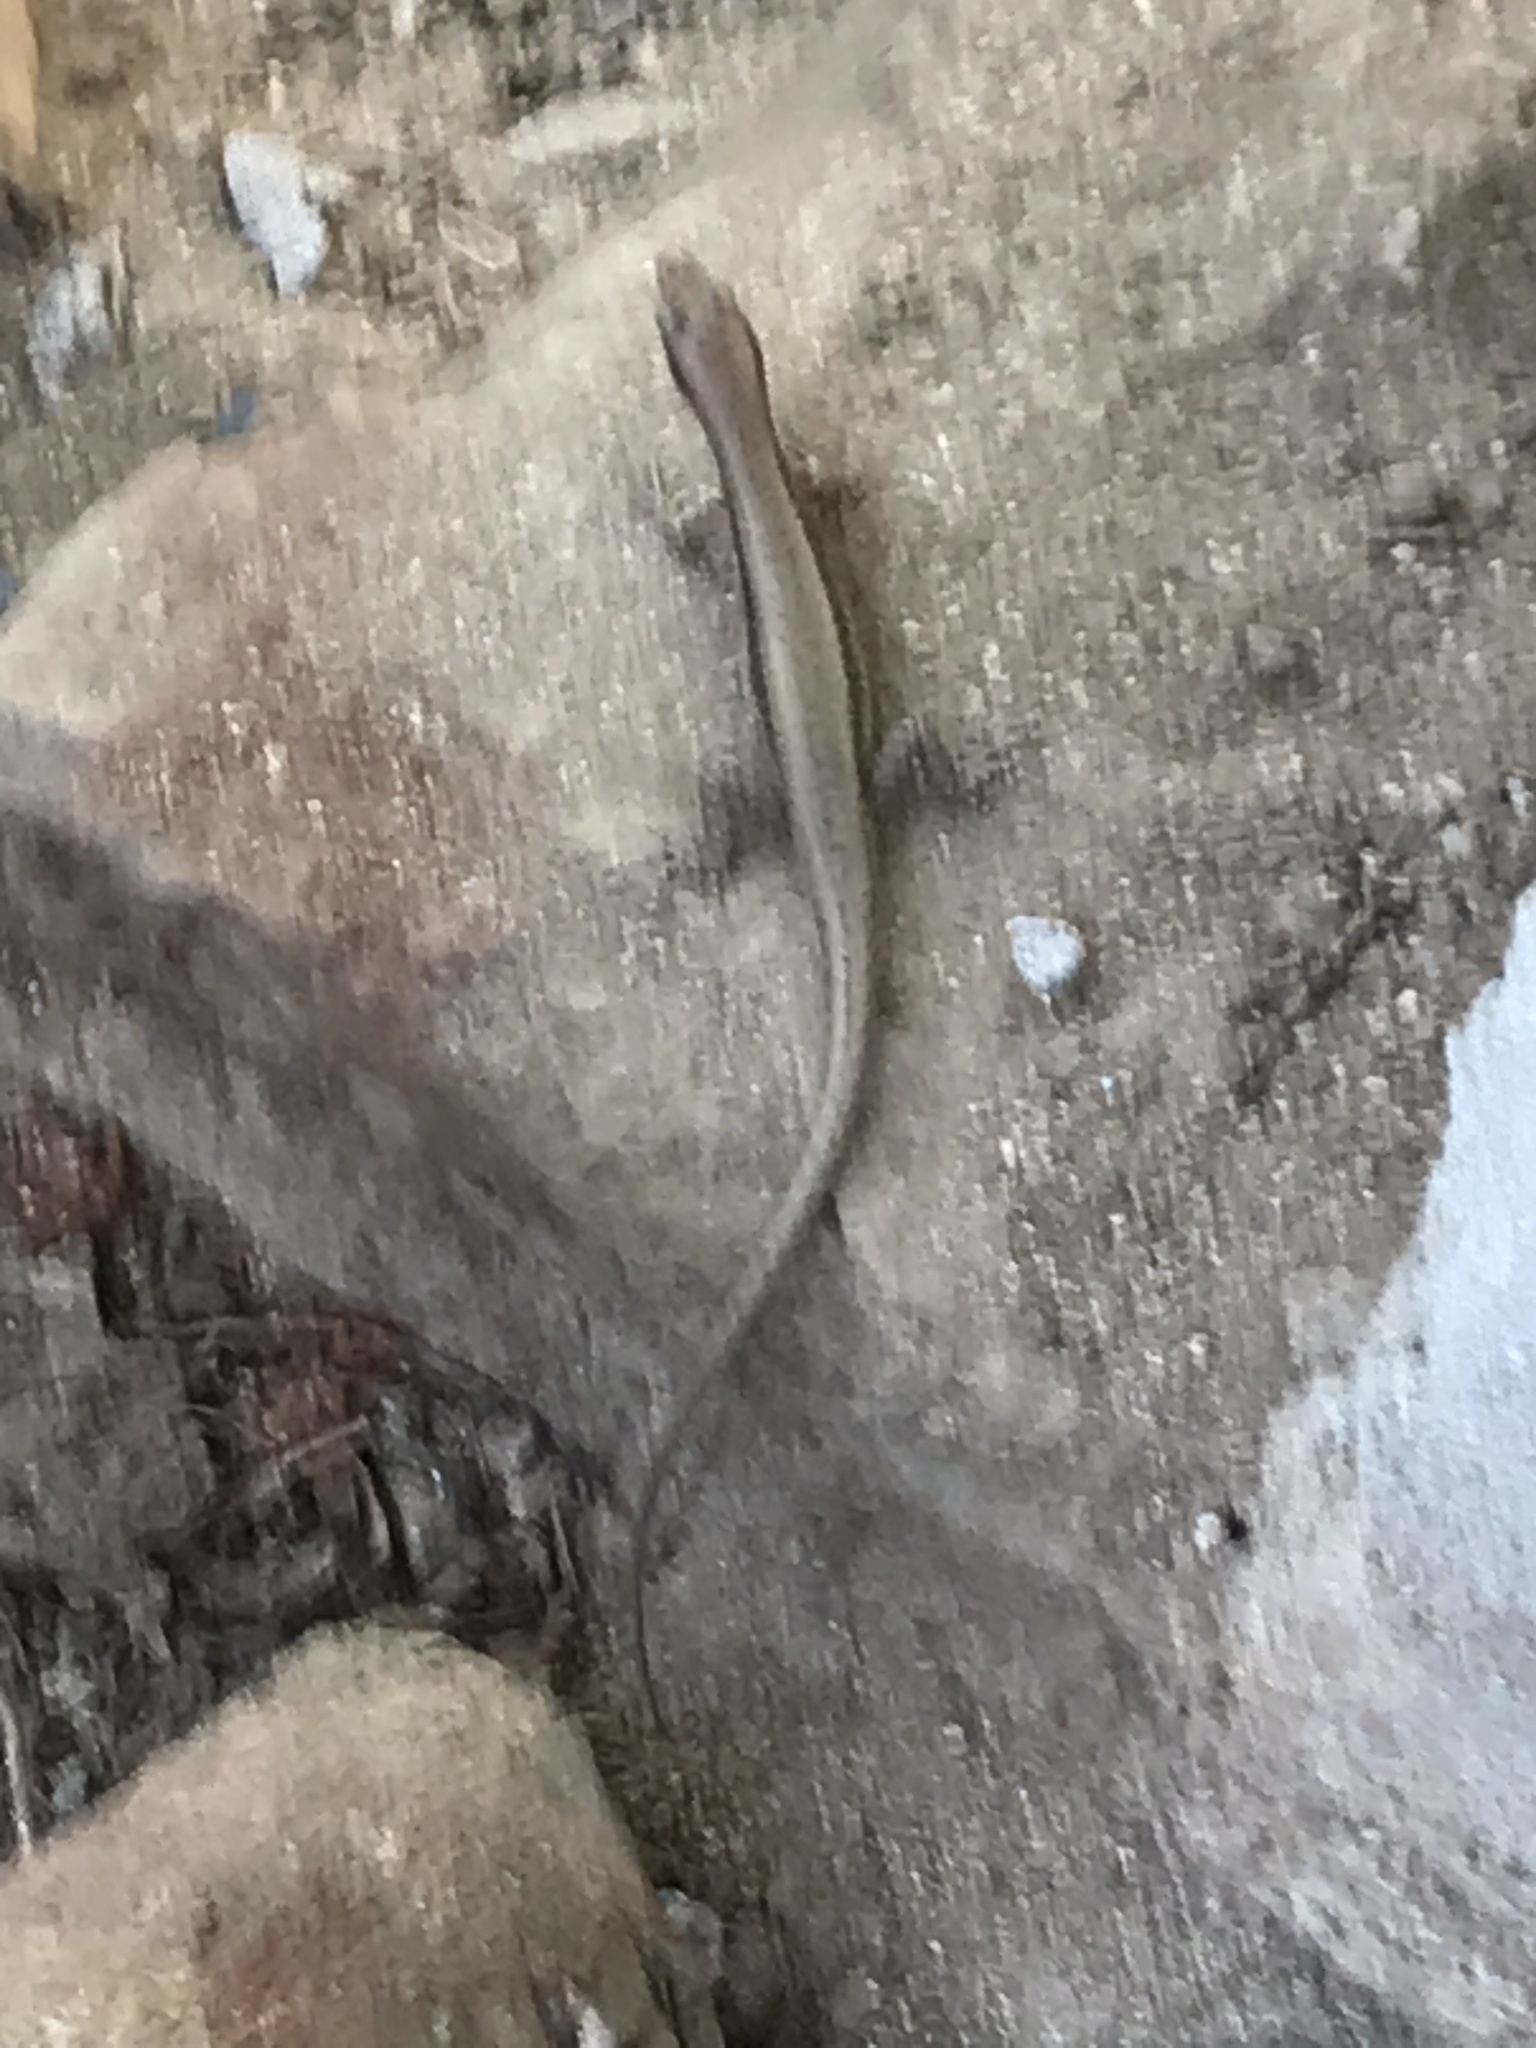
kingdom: Animalia
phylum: Chordata
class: Squamata
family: Scincidae
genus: Eutropis
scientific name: Eutropis multifasciata
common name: Common mabuya
